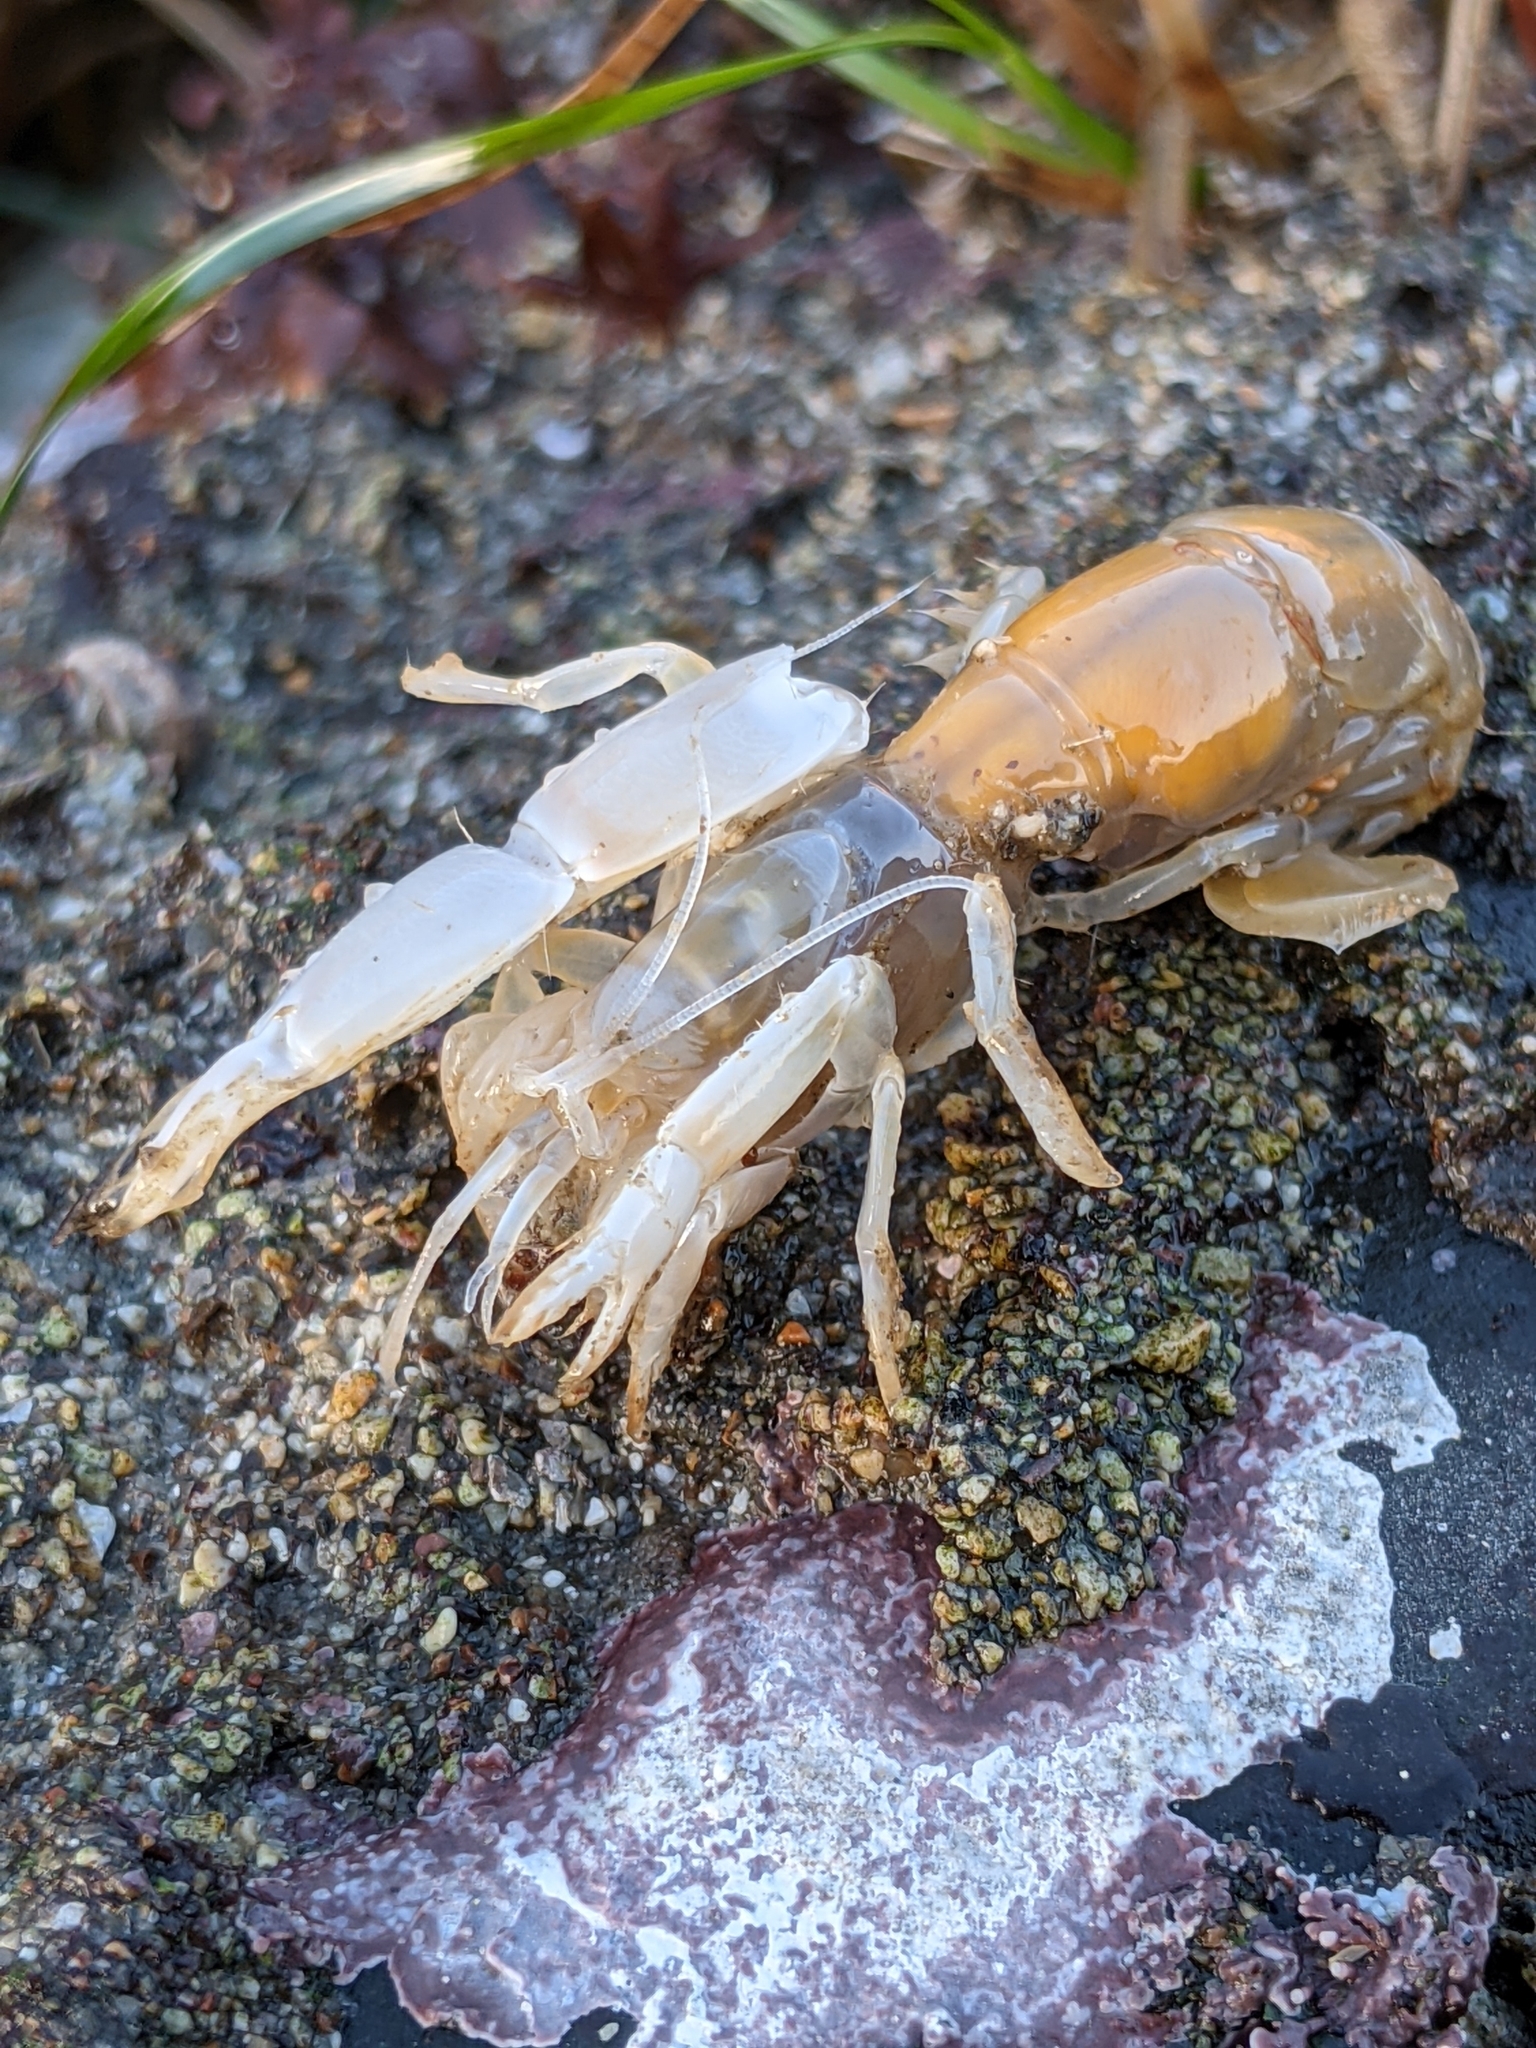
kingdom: Animalia
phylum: Arthropoda
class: Malacostraca
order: Decapoda
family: Callianassidae
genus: Neotrypaea
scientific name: Neotrypaea biffari
